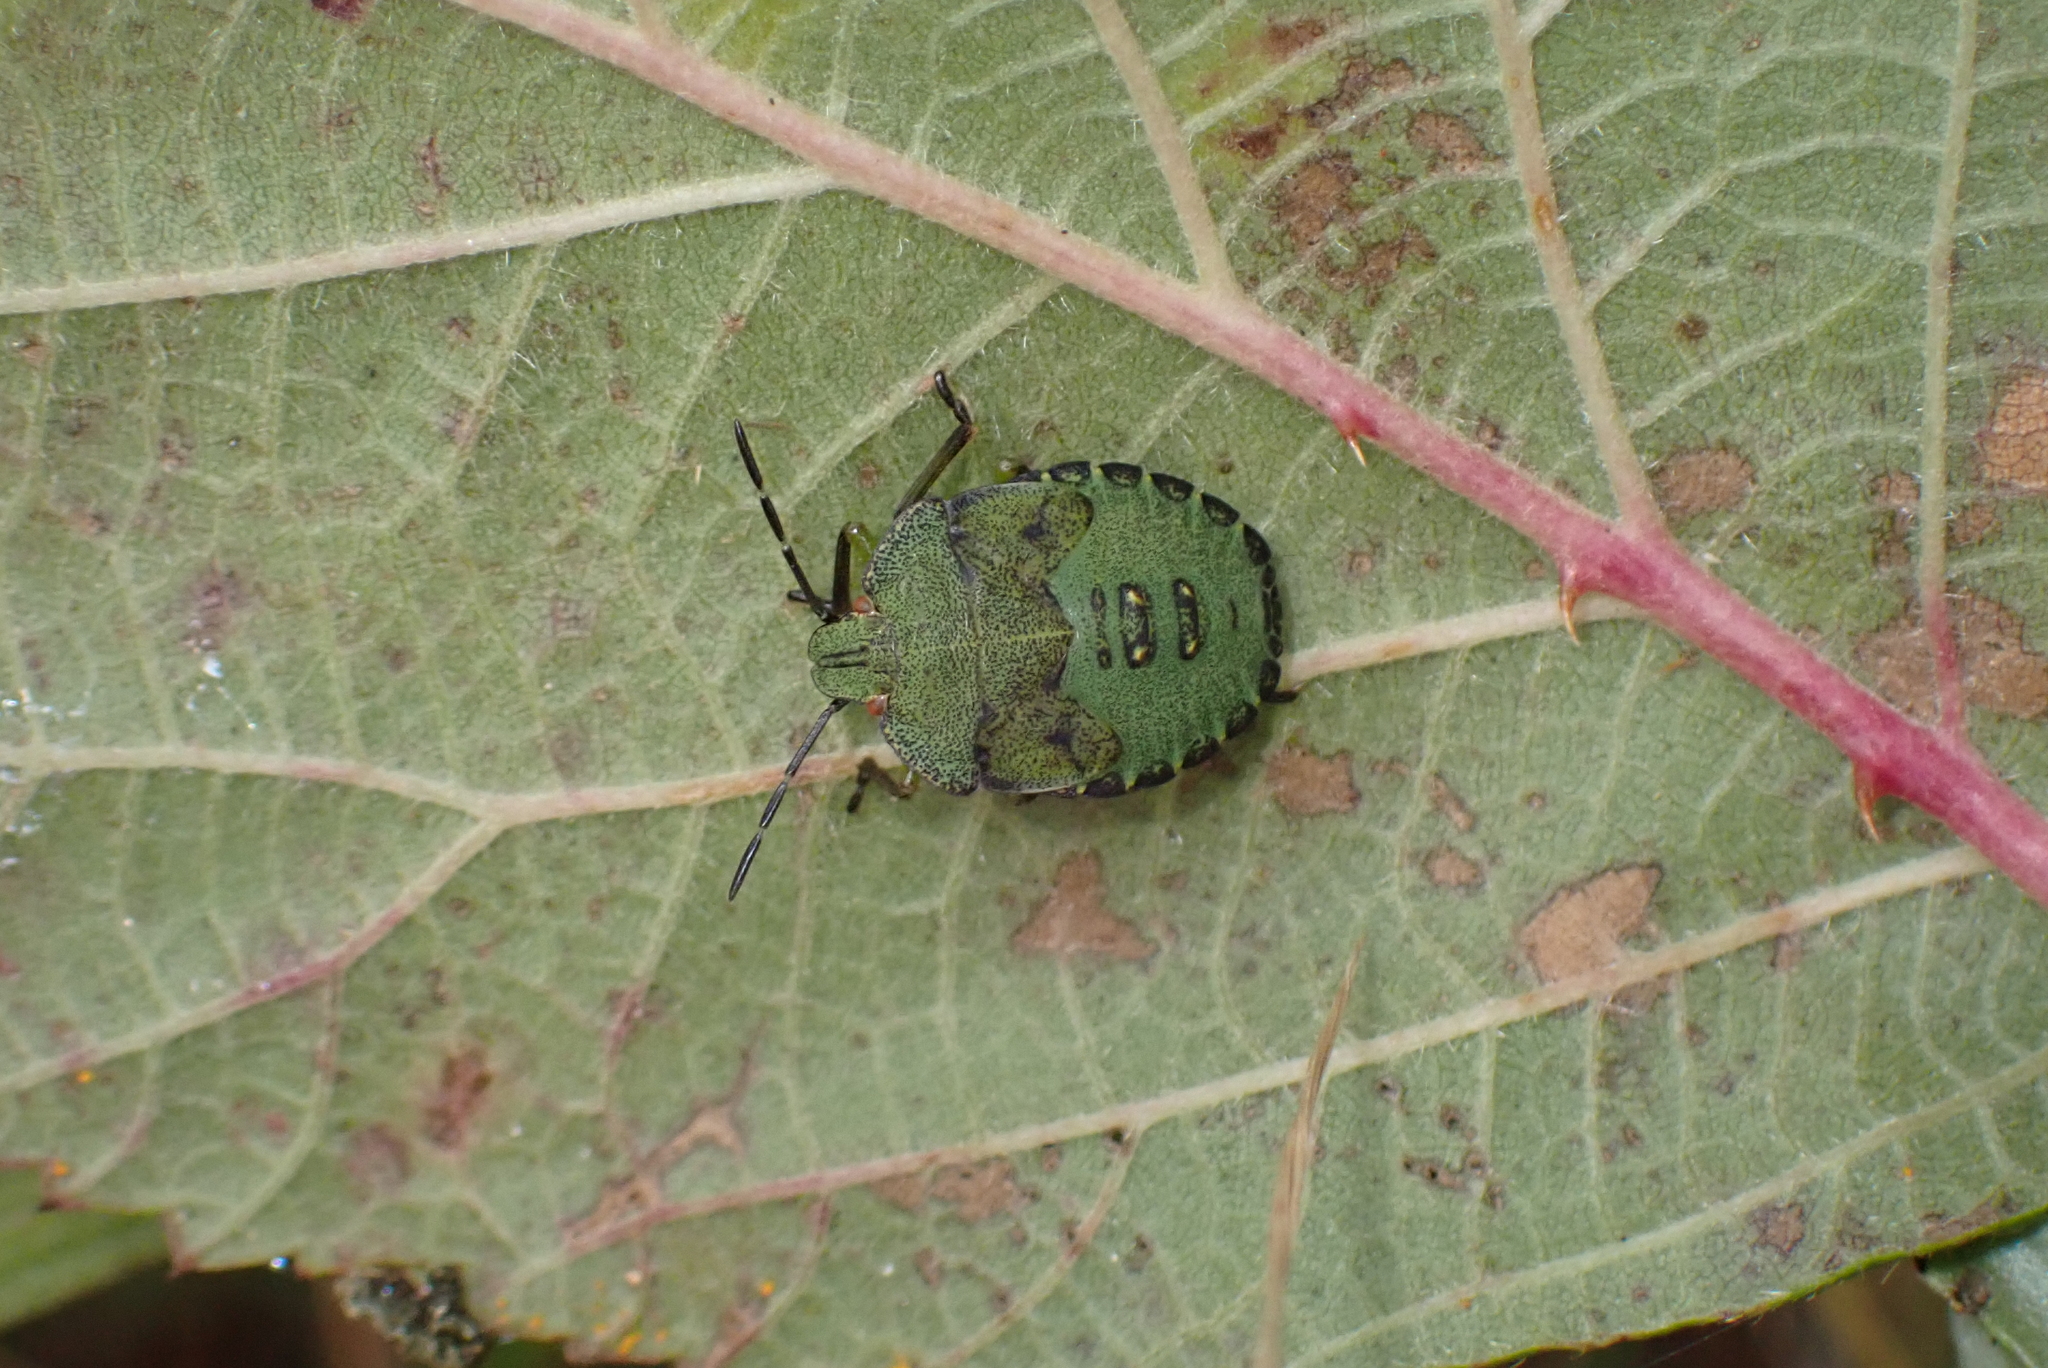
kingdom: Animalia
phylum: Arthropoda
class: Insecta
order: Hemiptera
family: Pentatomidae
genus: Palomena
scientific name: Palomena prasina
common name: Green shieldbug
